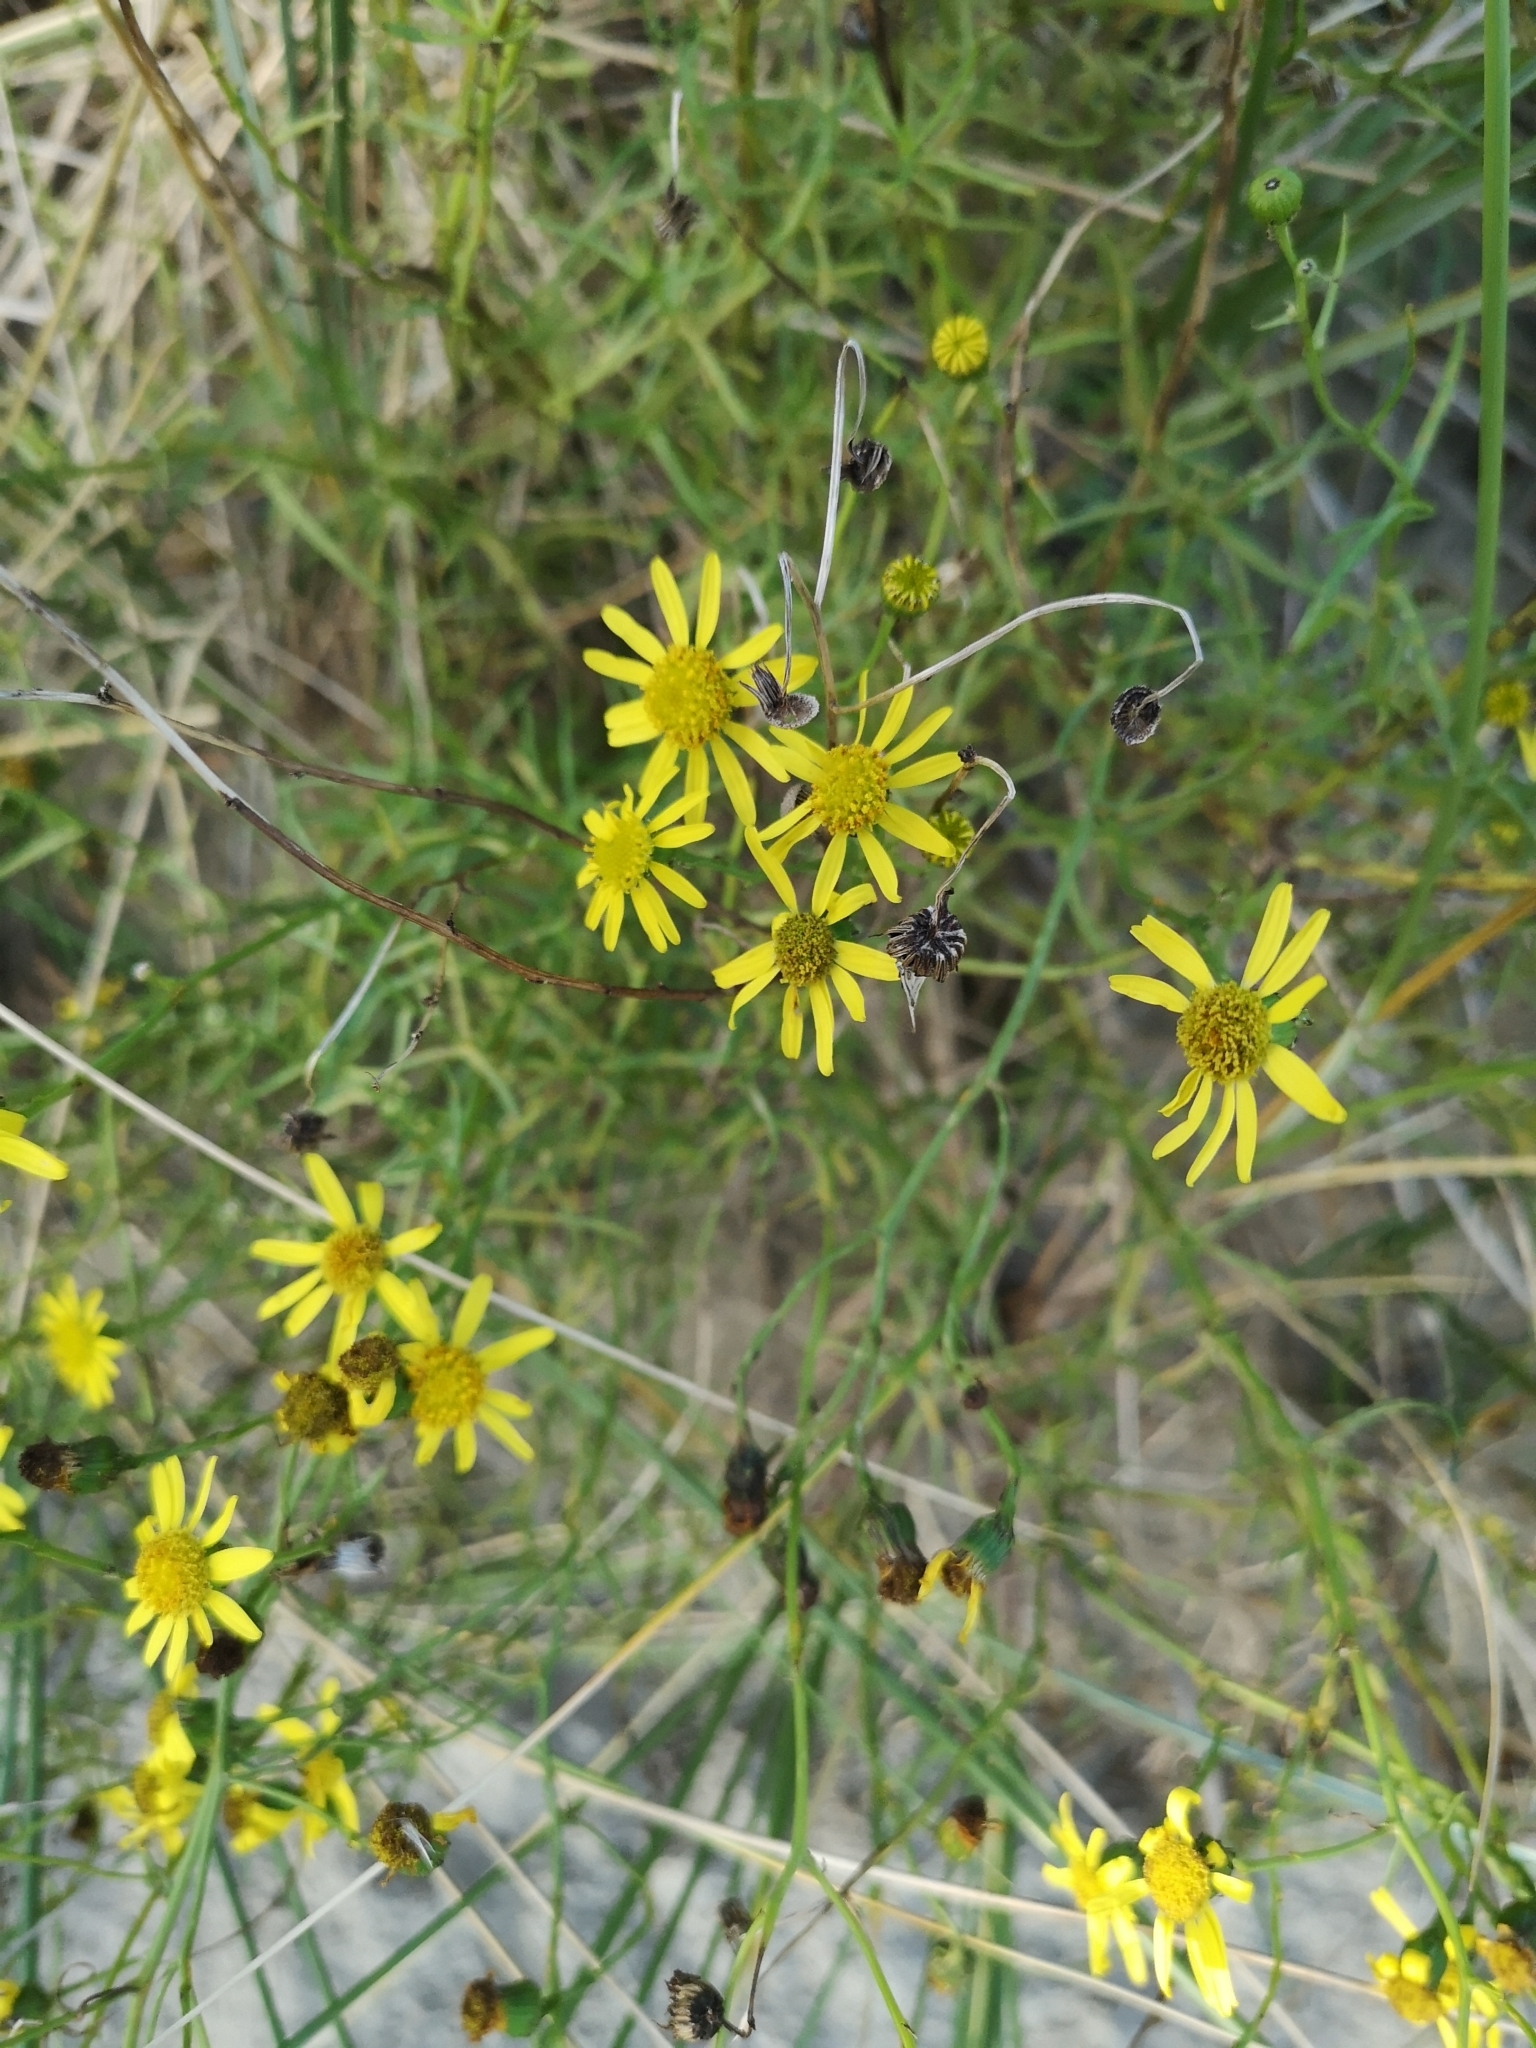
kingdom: Plantae
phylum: Tracheophyta
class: Magnoliopsida
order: Asterales
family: Asteraceae
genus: Senecio
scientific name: Senecio inaequidens
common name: Narrow-leaved ragwort
